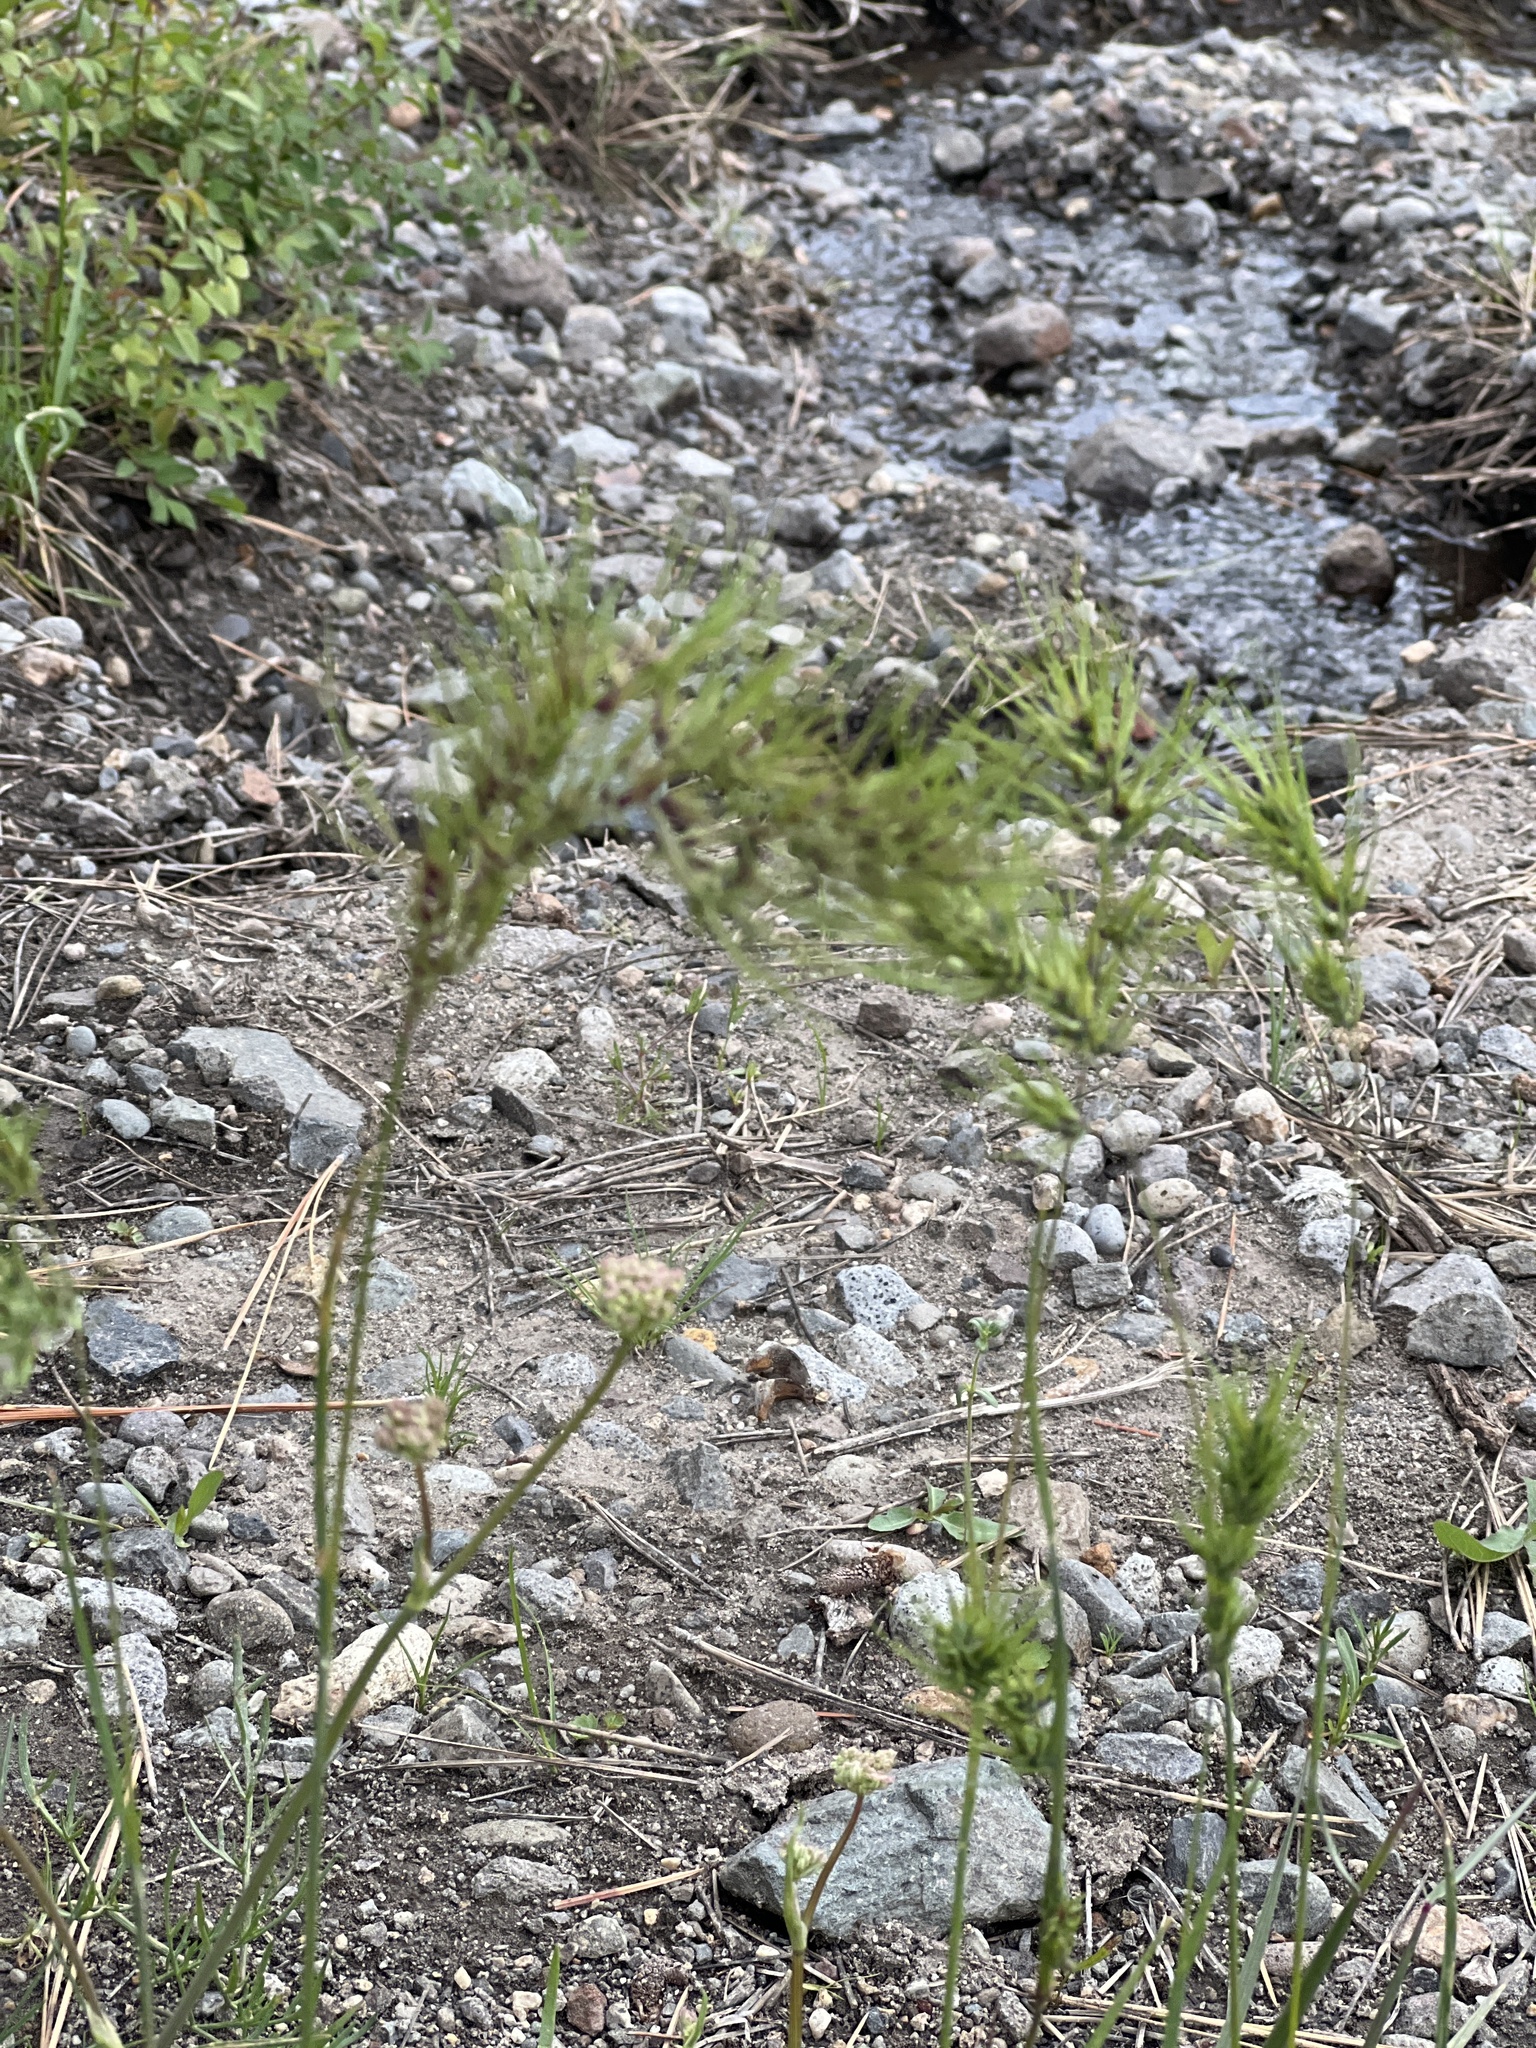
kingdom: Plantae
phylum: Tracheophyta
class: Liliopsida
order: Poales
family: Poaceae
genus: Poa
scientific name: Poa bulbosa
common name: Bulbous bluegrass
